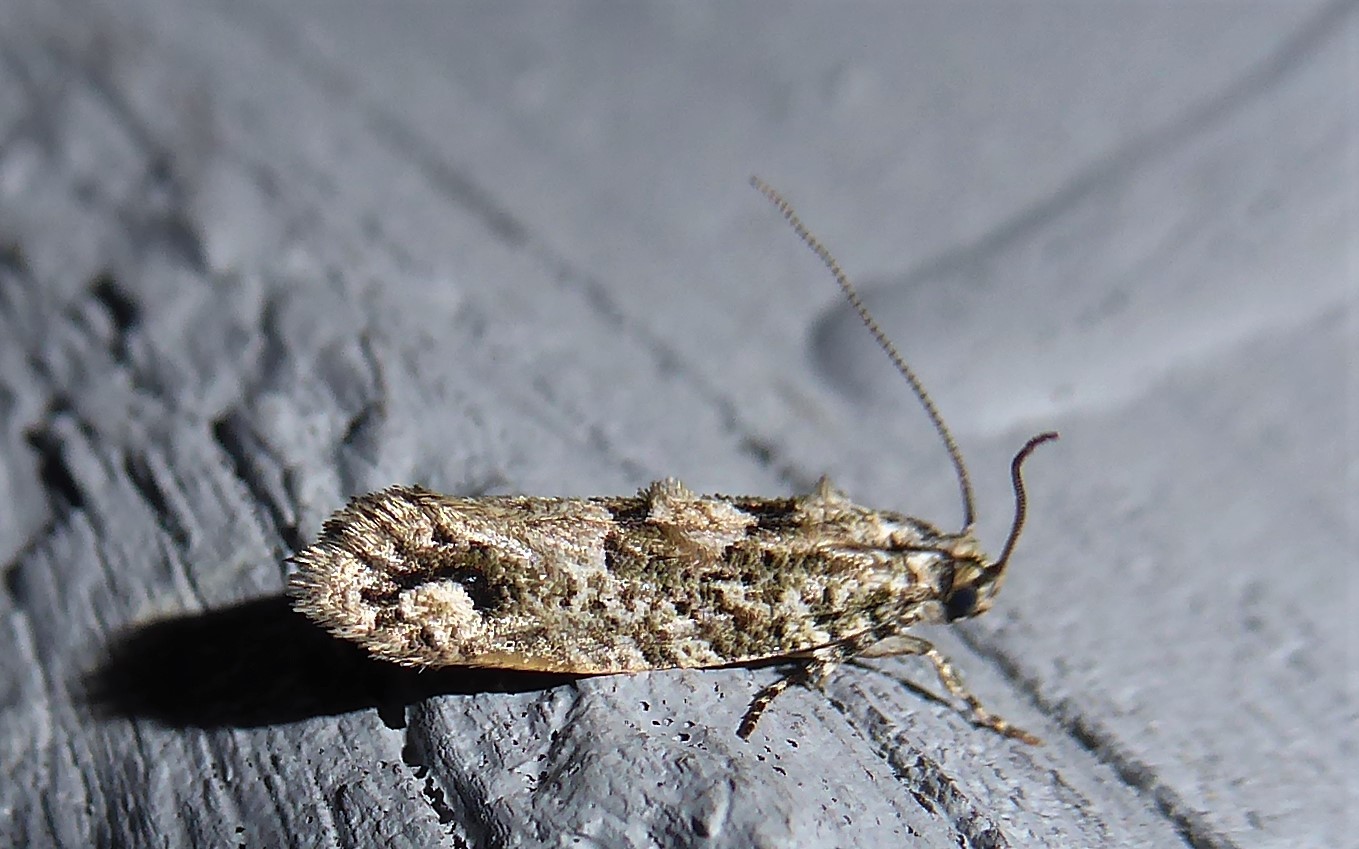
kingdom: Animalia
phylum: Arthropoda
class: Insecta
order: Lepidoptera
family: Tineidae
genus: Lysiphragma
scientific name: Lysiphragma howesii
